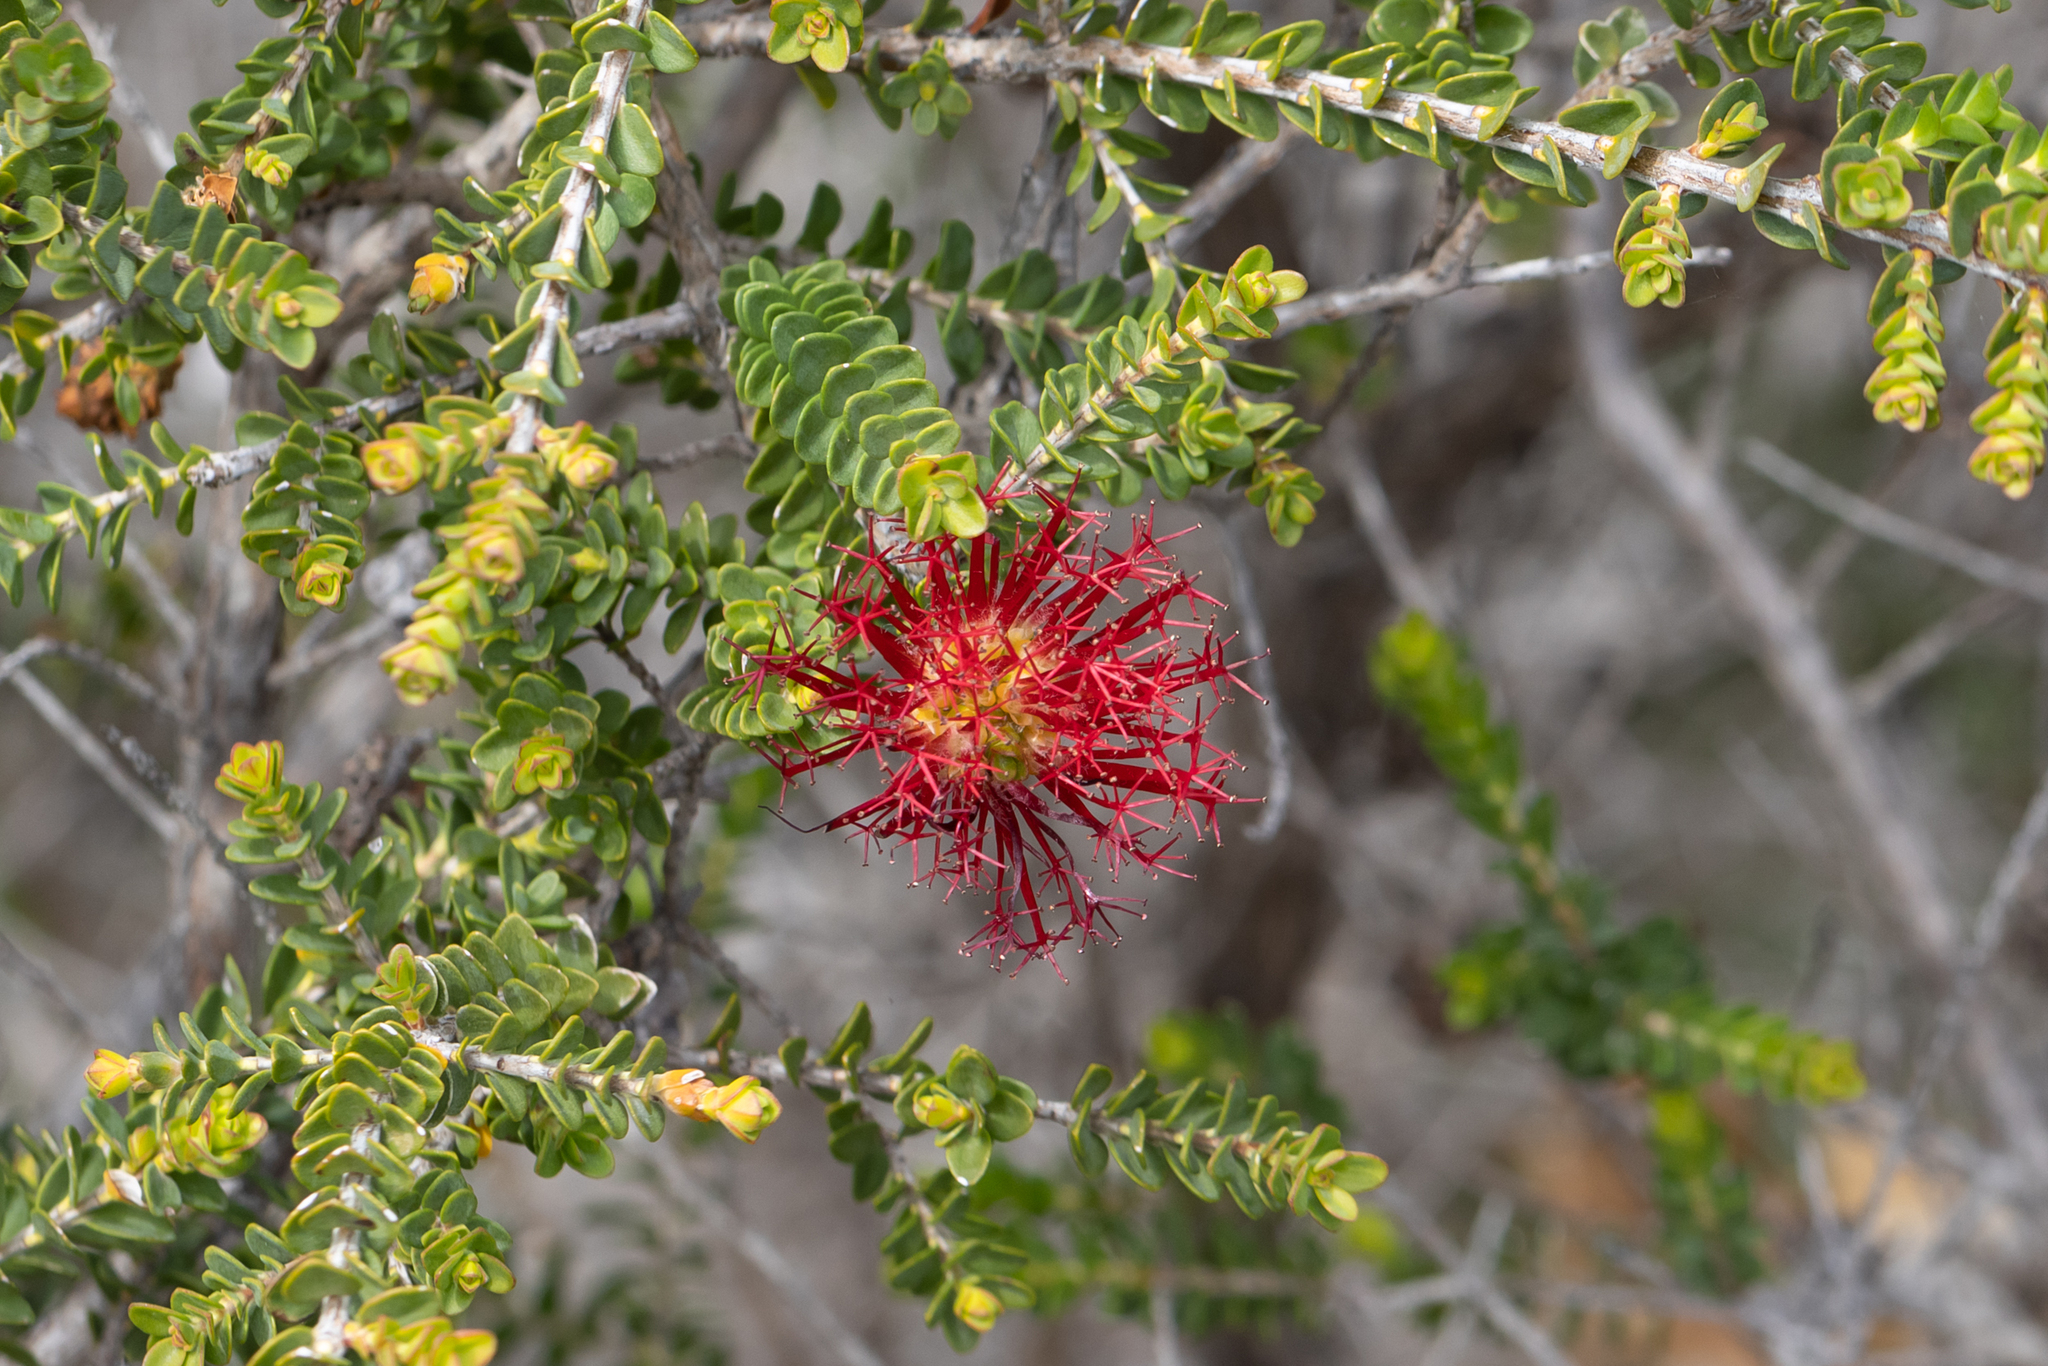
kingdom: Plantae
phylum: Tracheophyta
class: Magnoliopsida
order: Myrtales
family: Myrtaceae
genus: Melaleuca
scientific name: Melaleuca anisandra
